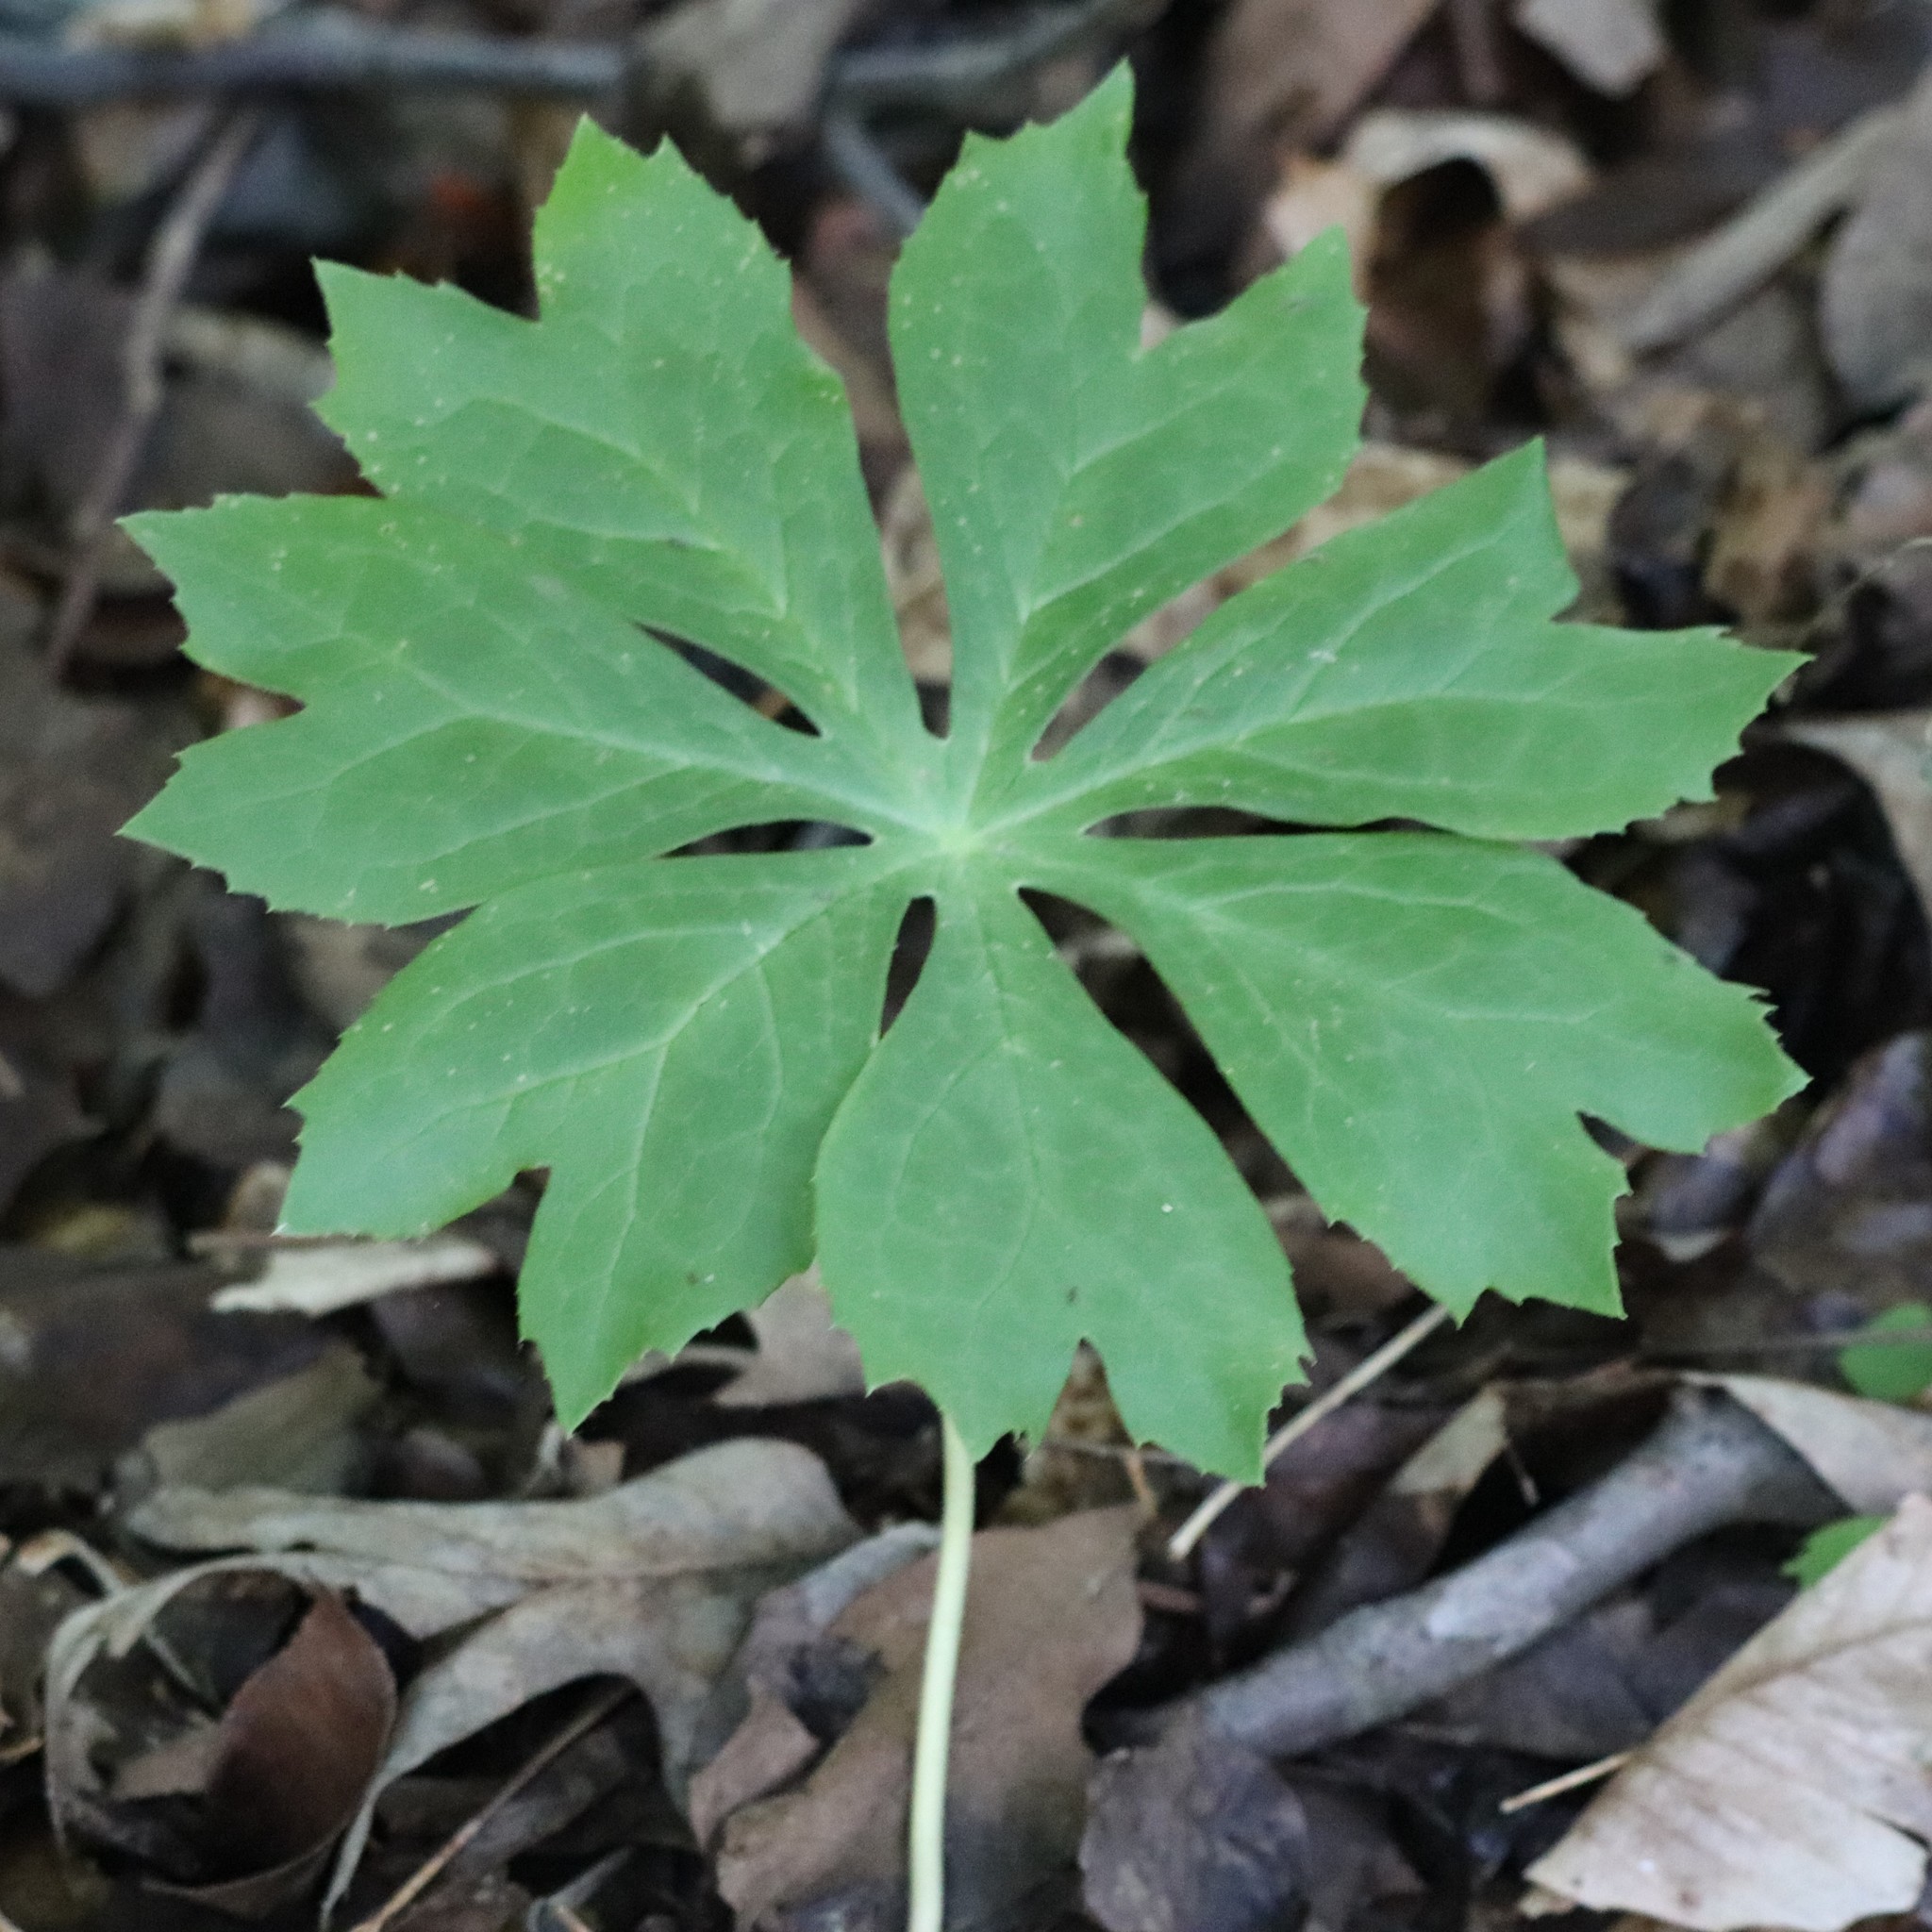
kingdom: Plantae
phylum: Tracheophyta
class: Magnoliopsida
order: Ranunculales
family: Berberidaceae
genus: Podophyllum
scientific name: Podophyllum peltatum
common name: Wild mandrake
